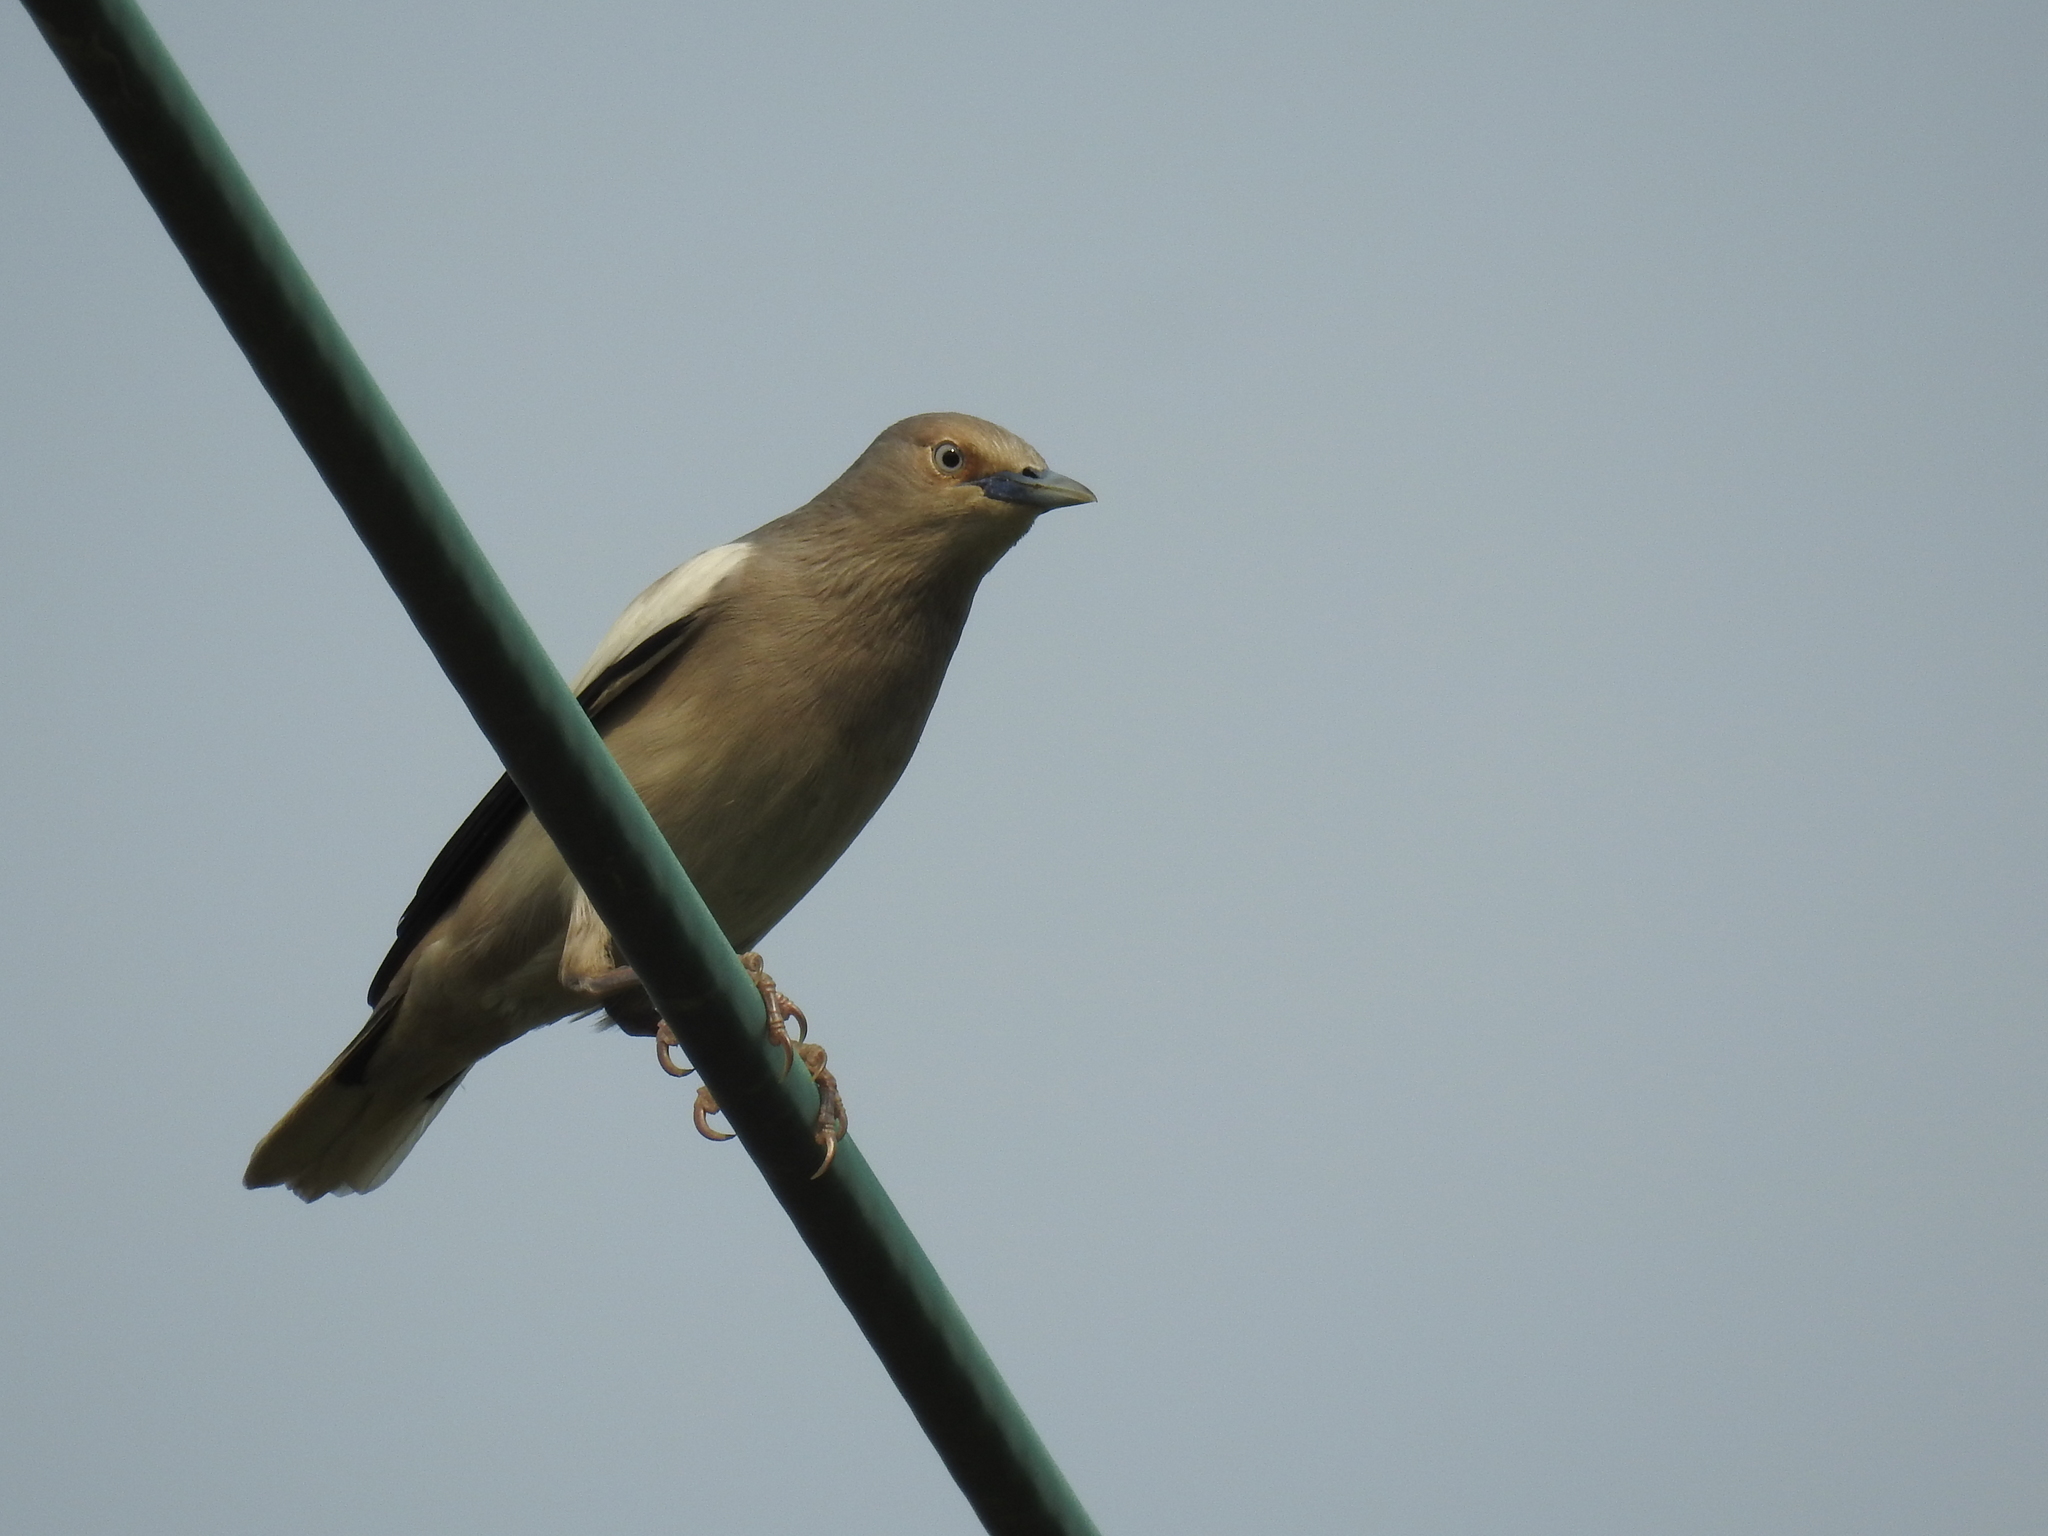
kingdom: Animalia
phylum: Chordata
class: Aves
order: Passeriformes
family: Sturnidae
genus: Sturnia
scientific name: Sturnia sinensis
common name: White-shouldered starling
